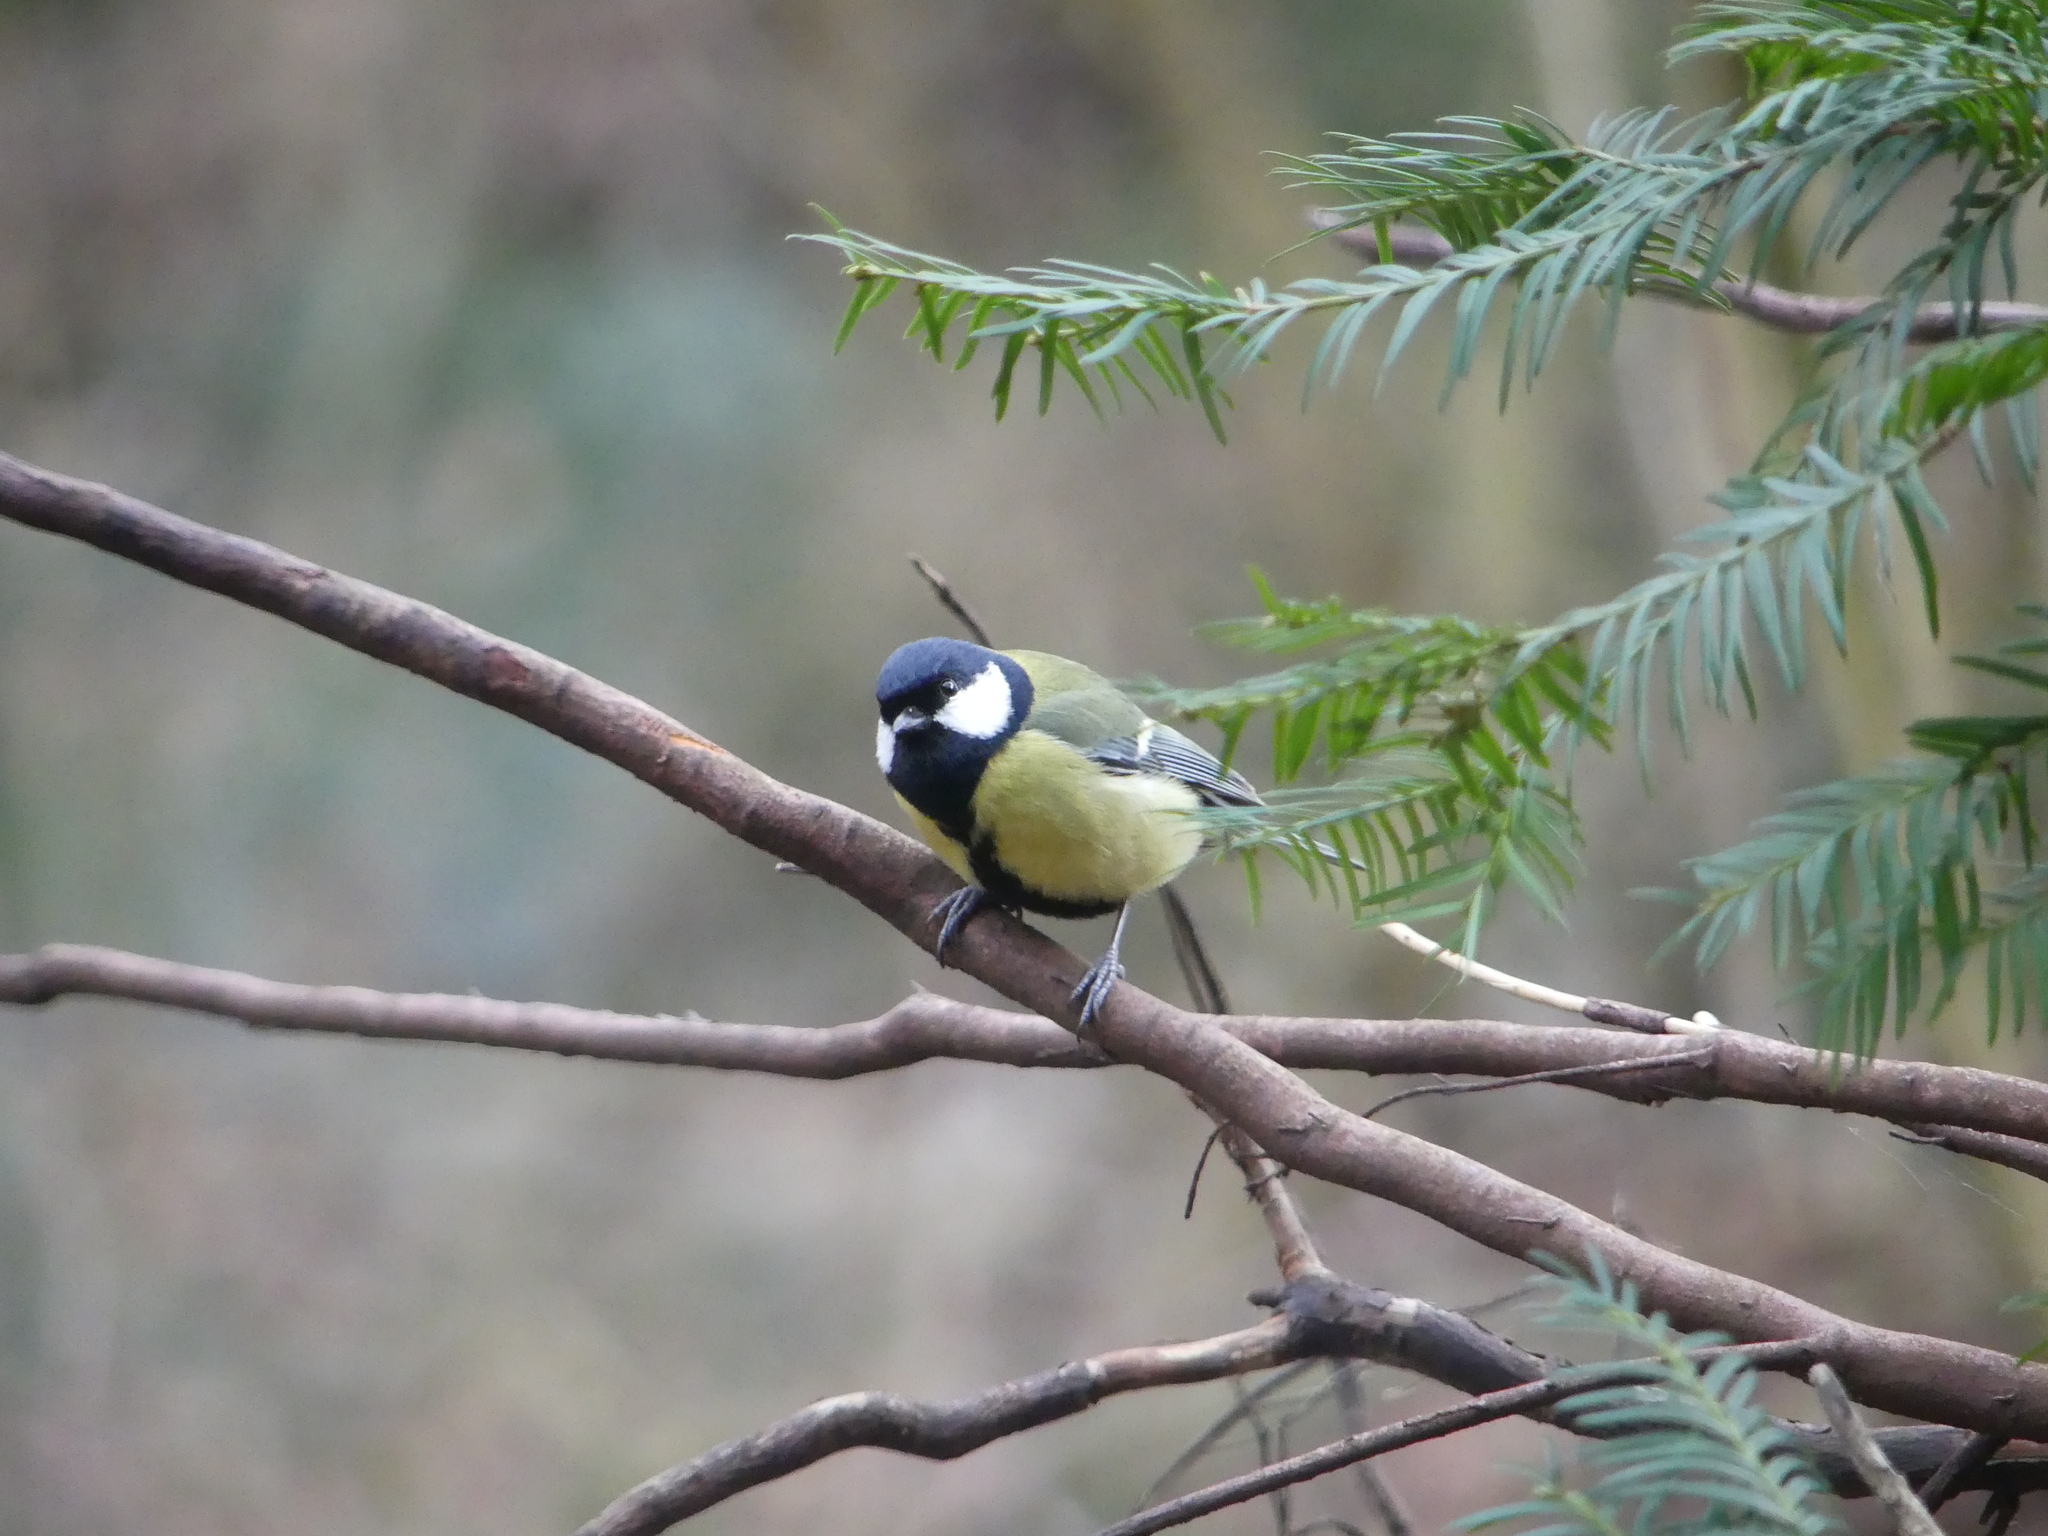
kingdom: Animalia
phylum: Chordata
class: Aves
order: Passeriformes
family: Paridae
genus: Parus
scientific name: Parus major
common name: Great tit
